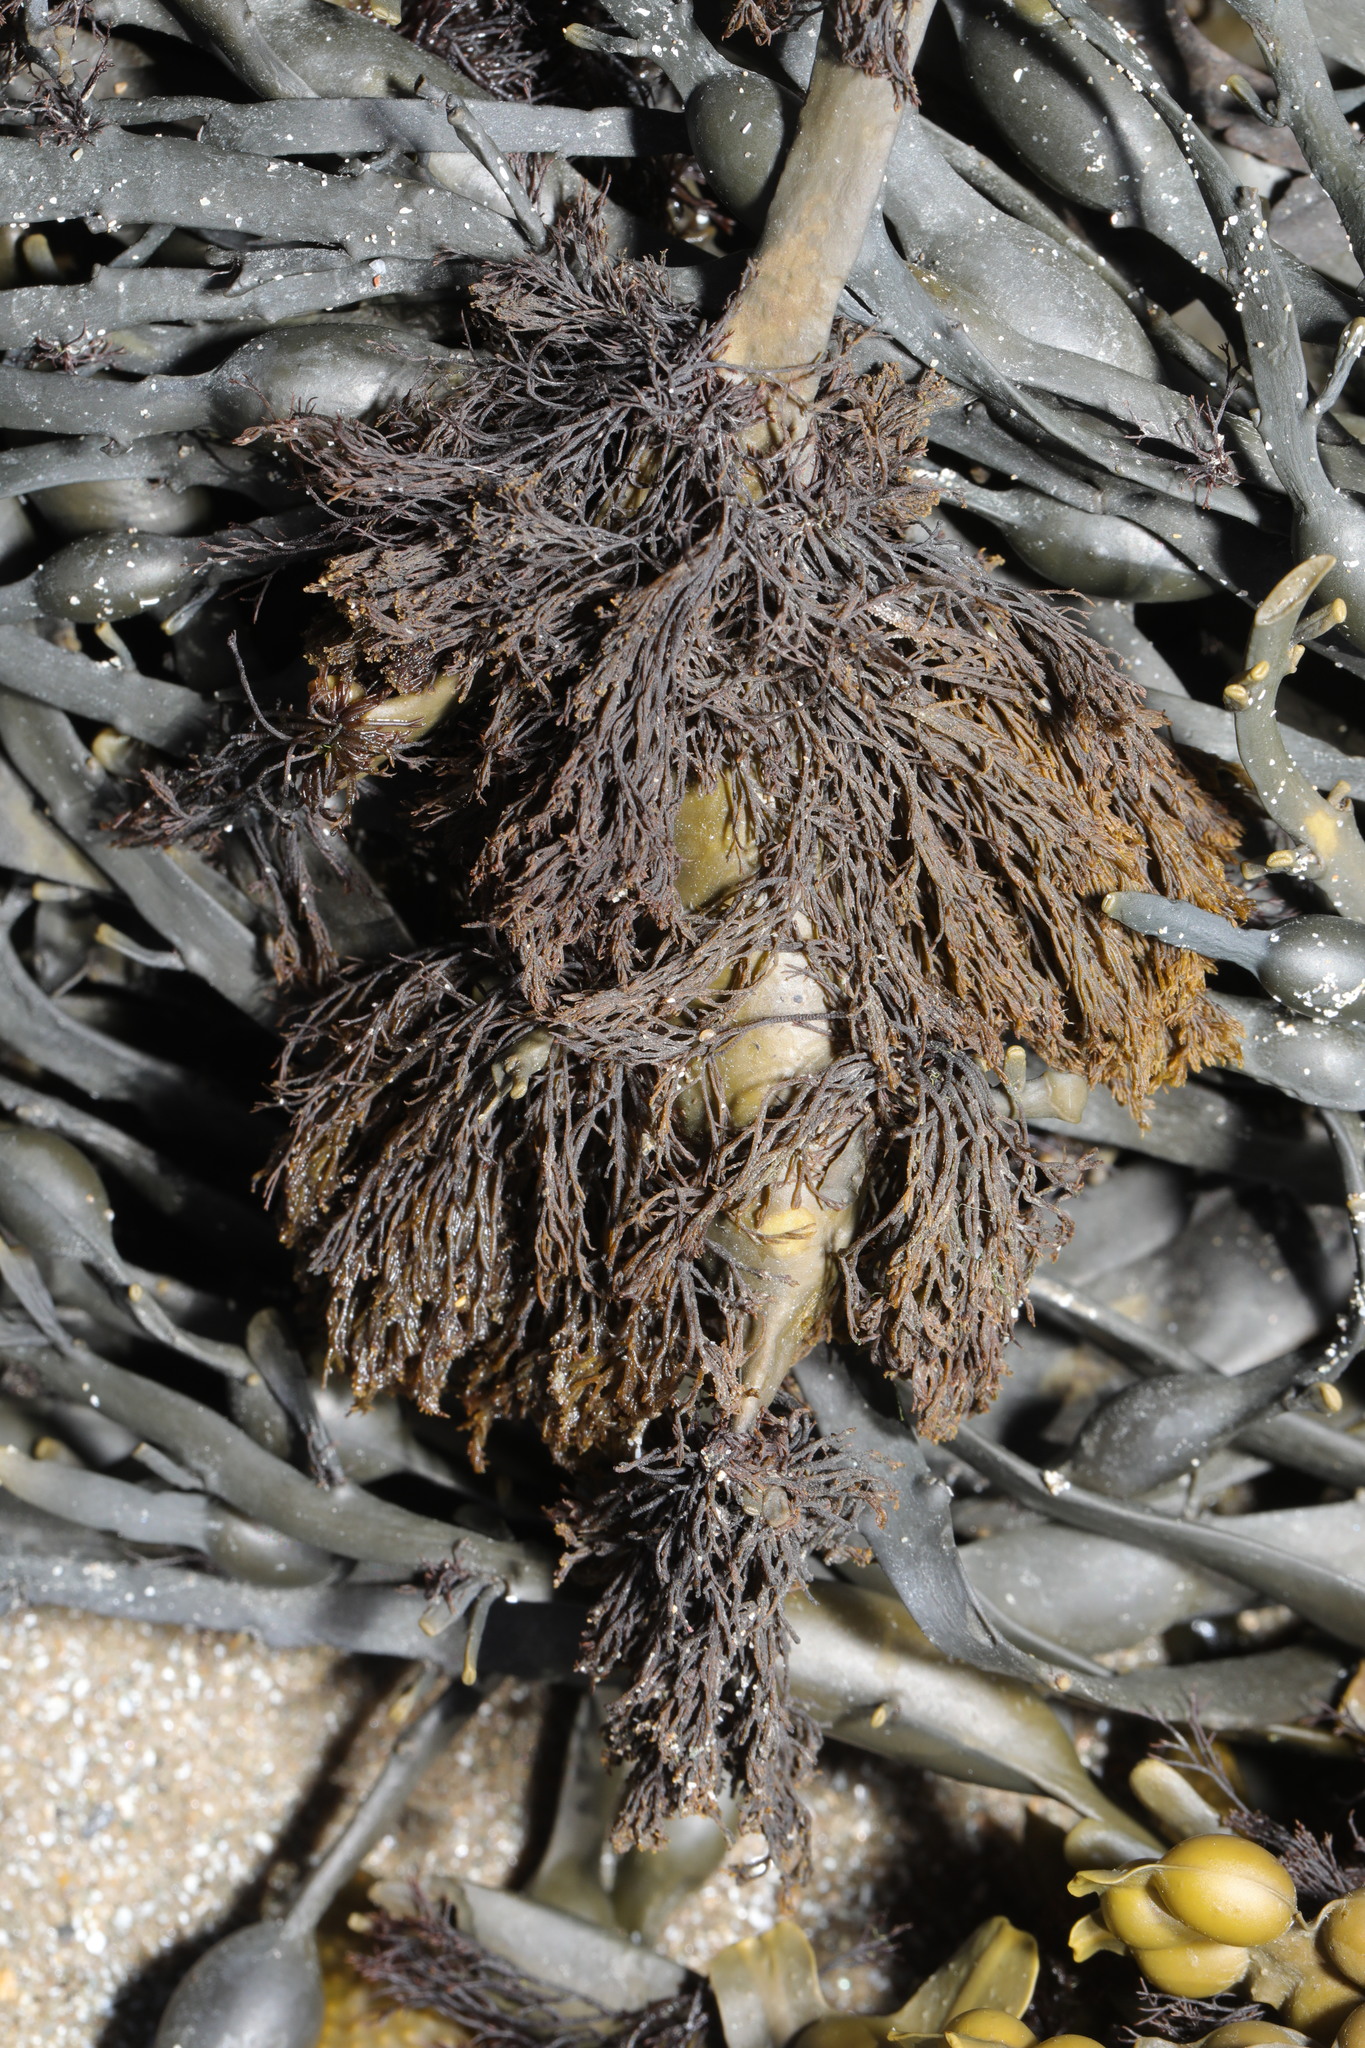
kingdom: Chromista
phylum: Ochrophyta
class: Phaeophyceae
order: Fucales
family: Fucaceae
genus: Ascophyllum
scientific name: Ascophyllum nodosum
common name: Knotted wrack
